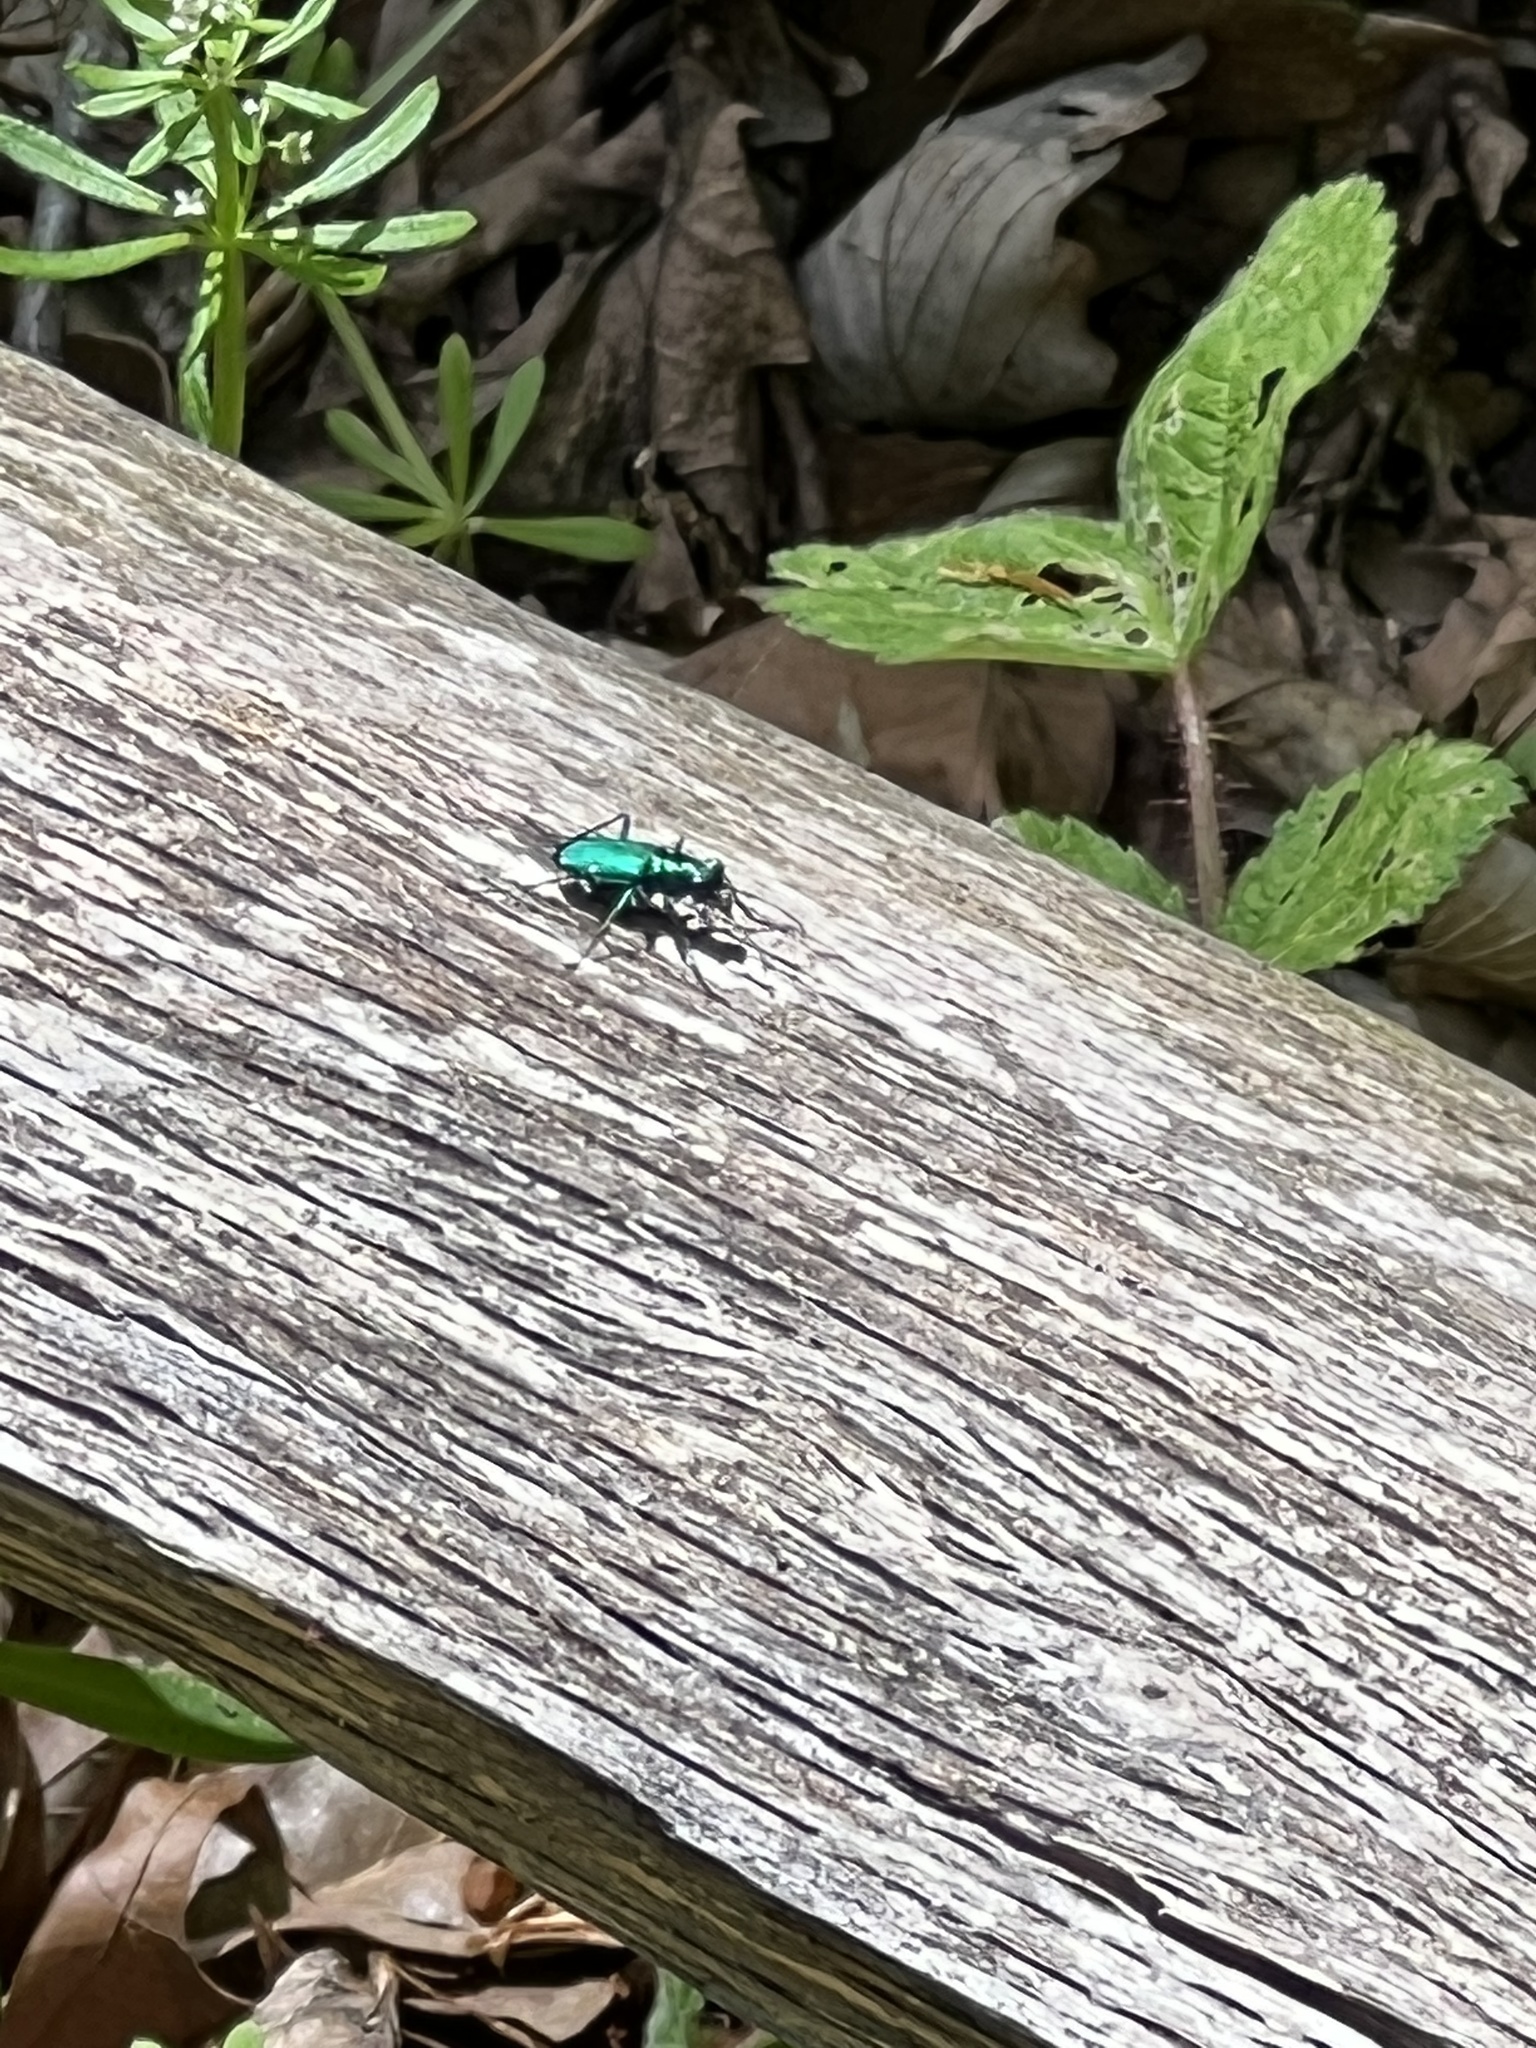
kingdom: Animalia
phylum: Arthropoda
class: Insecta
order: Coleoptera
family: Carabidae
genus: Cicindela
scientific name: Cicindela sexguttata
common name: Six-spotted tiger beetle
